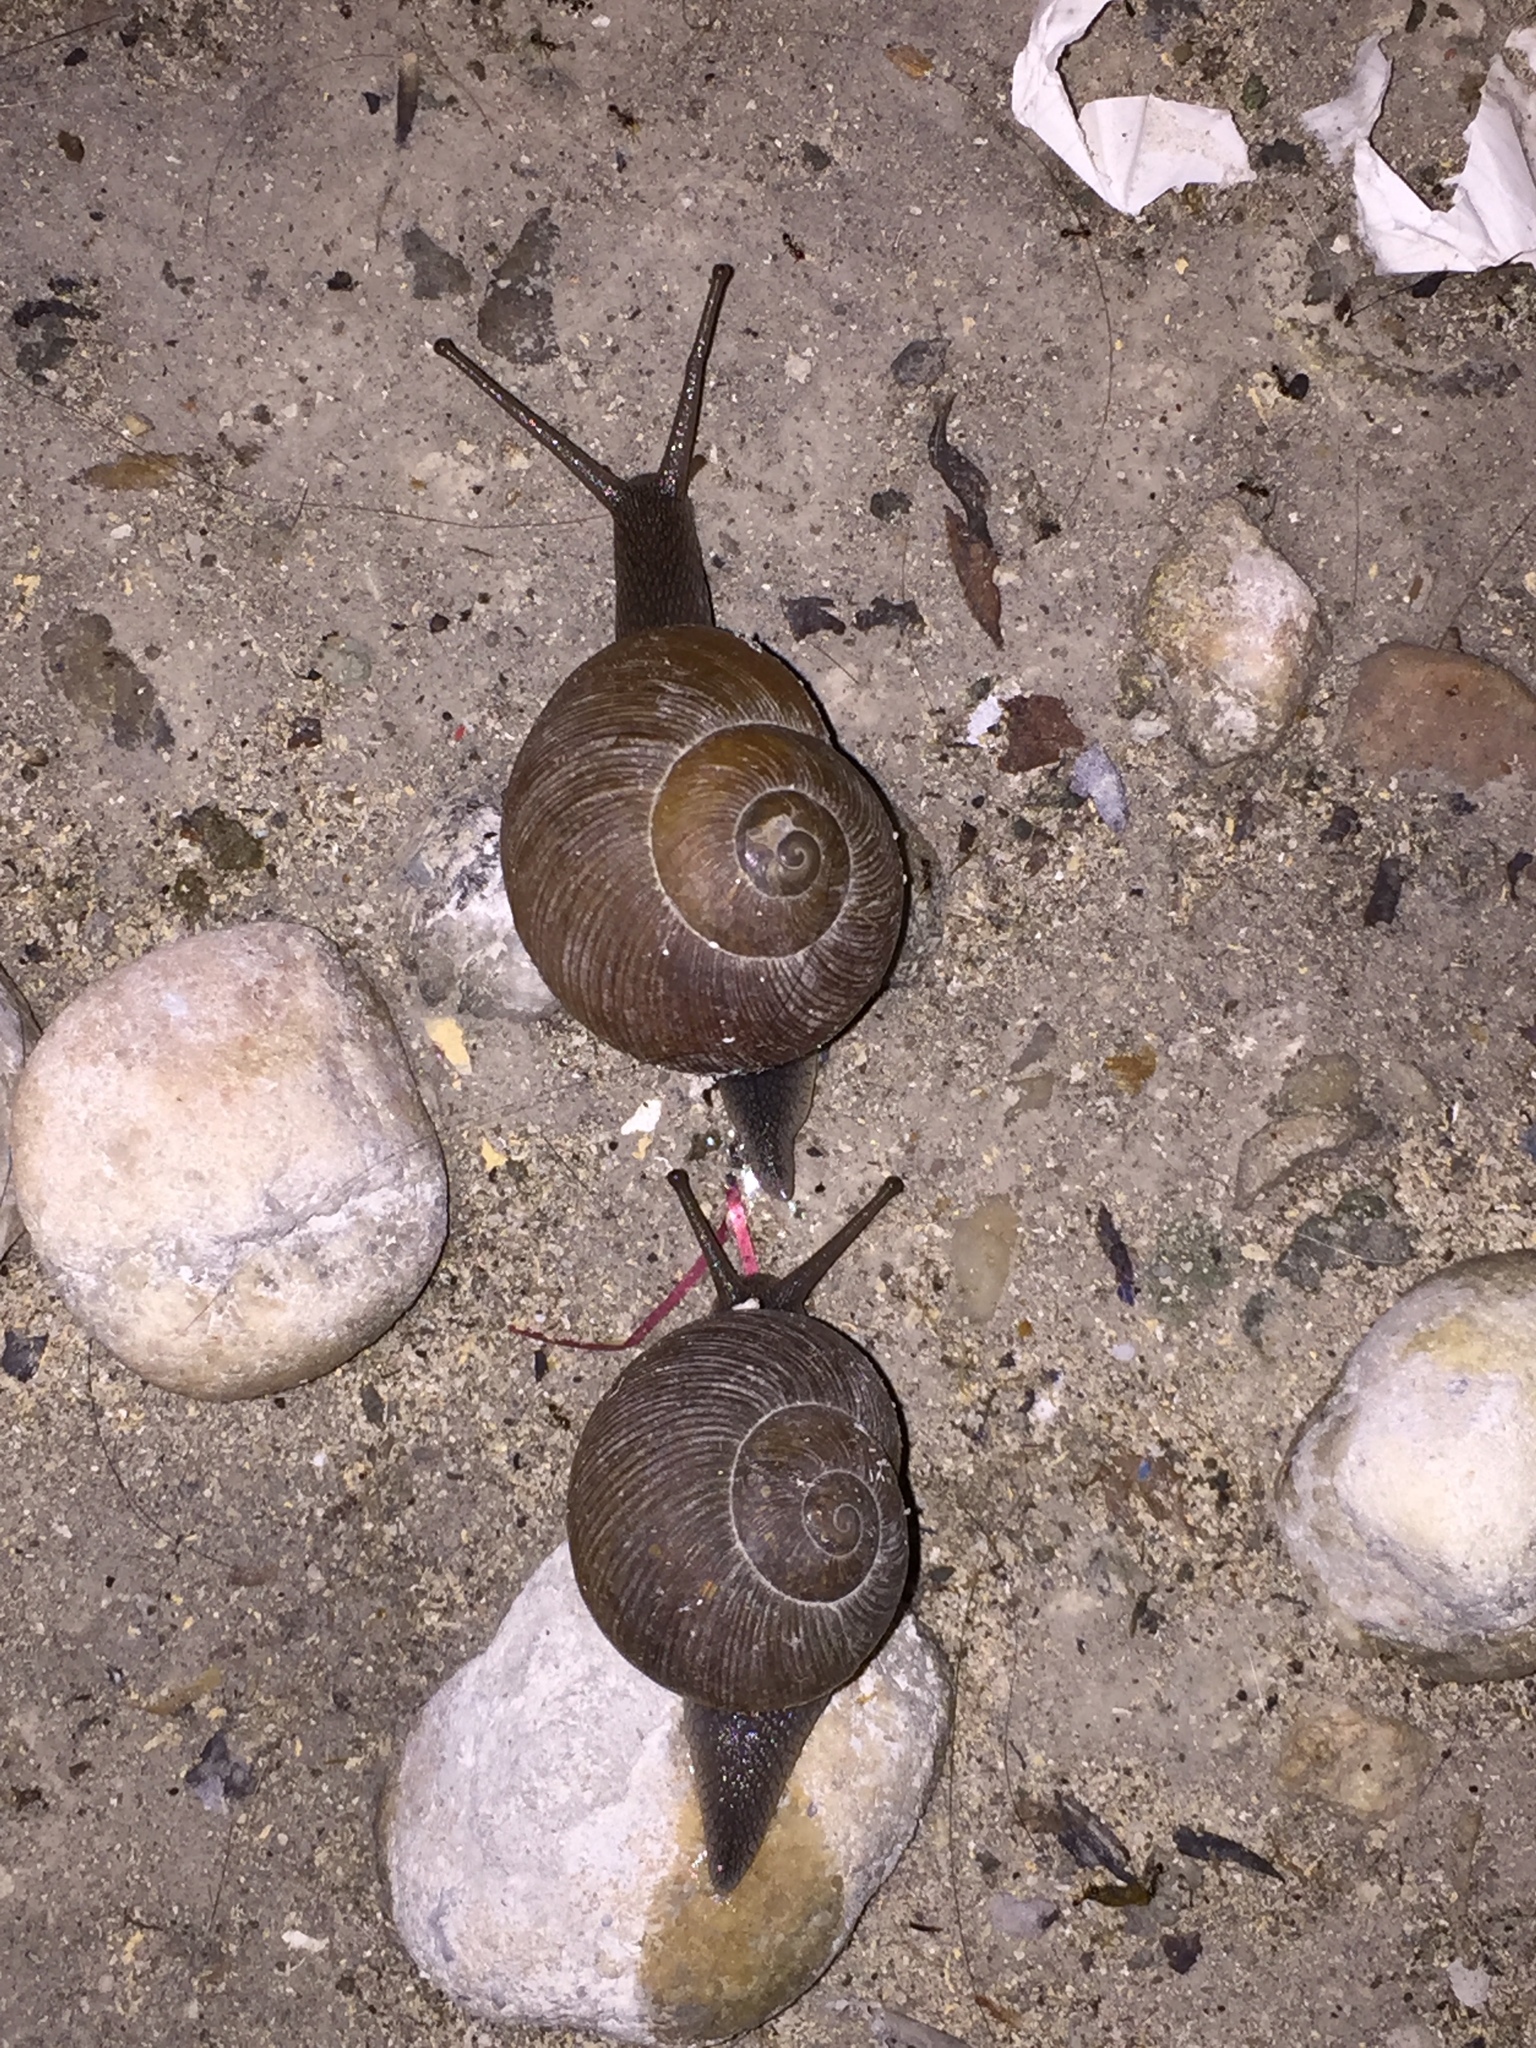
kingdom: Animalia
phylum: Mollusca
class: Gastropoda
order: Stylommatophora
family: Zachrysiidae
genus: Zachrysia
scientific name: Zachrysia provisoria
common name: Garden zachrysia
